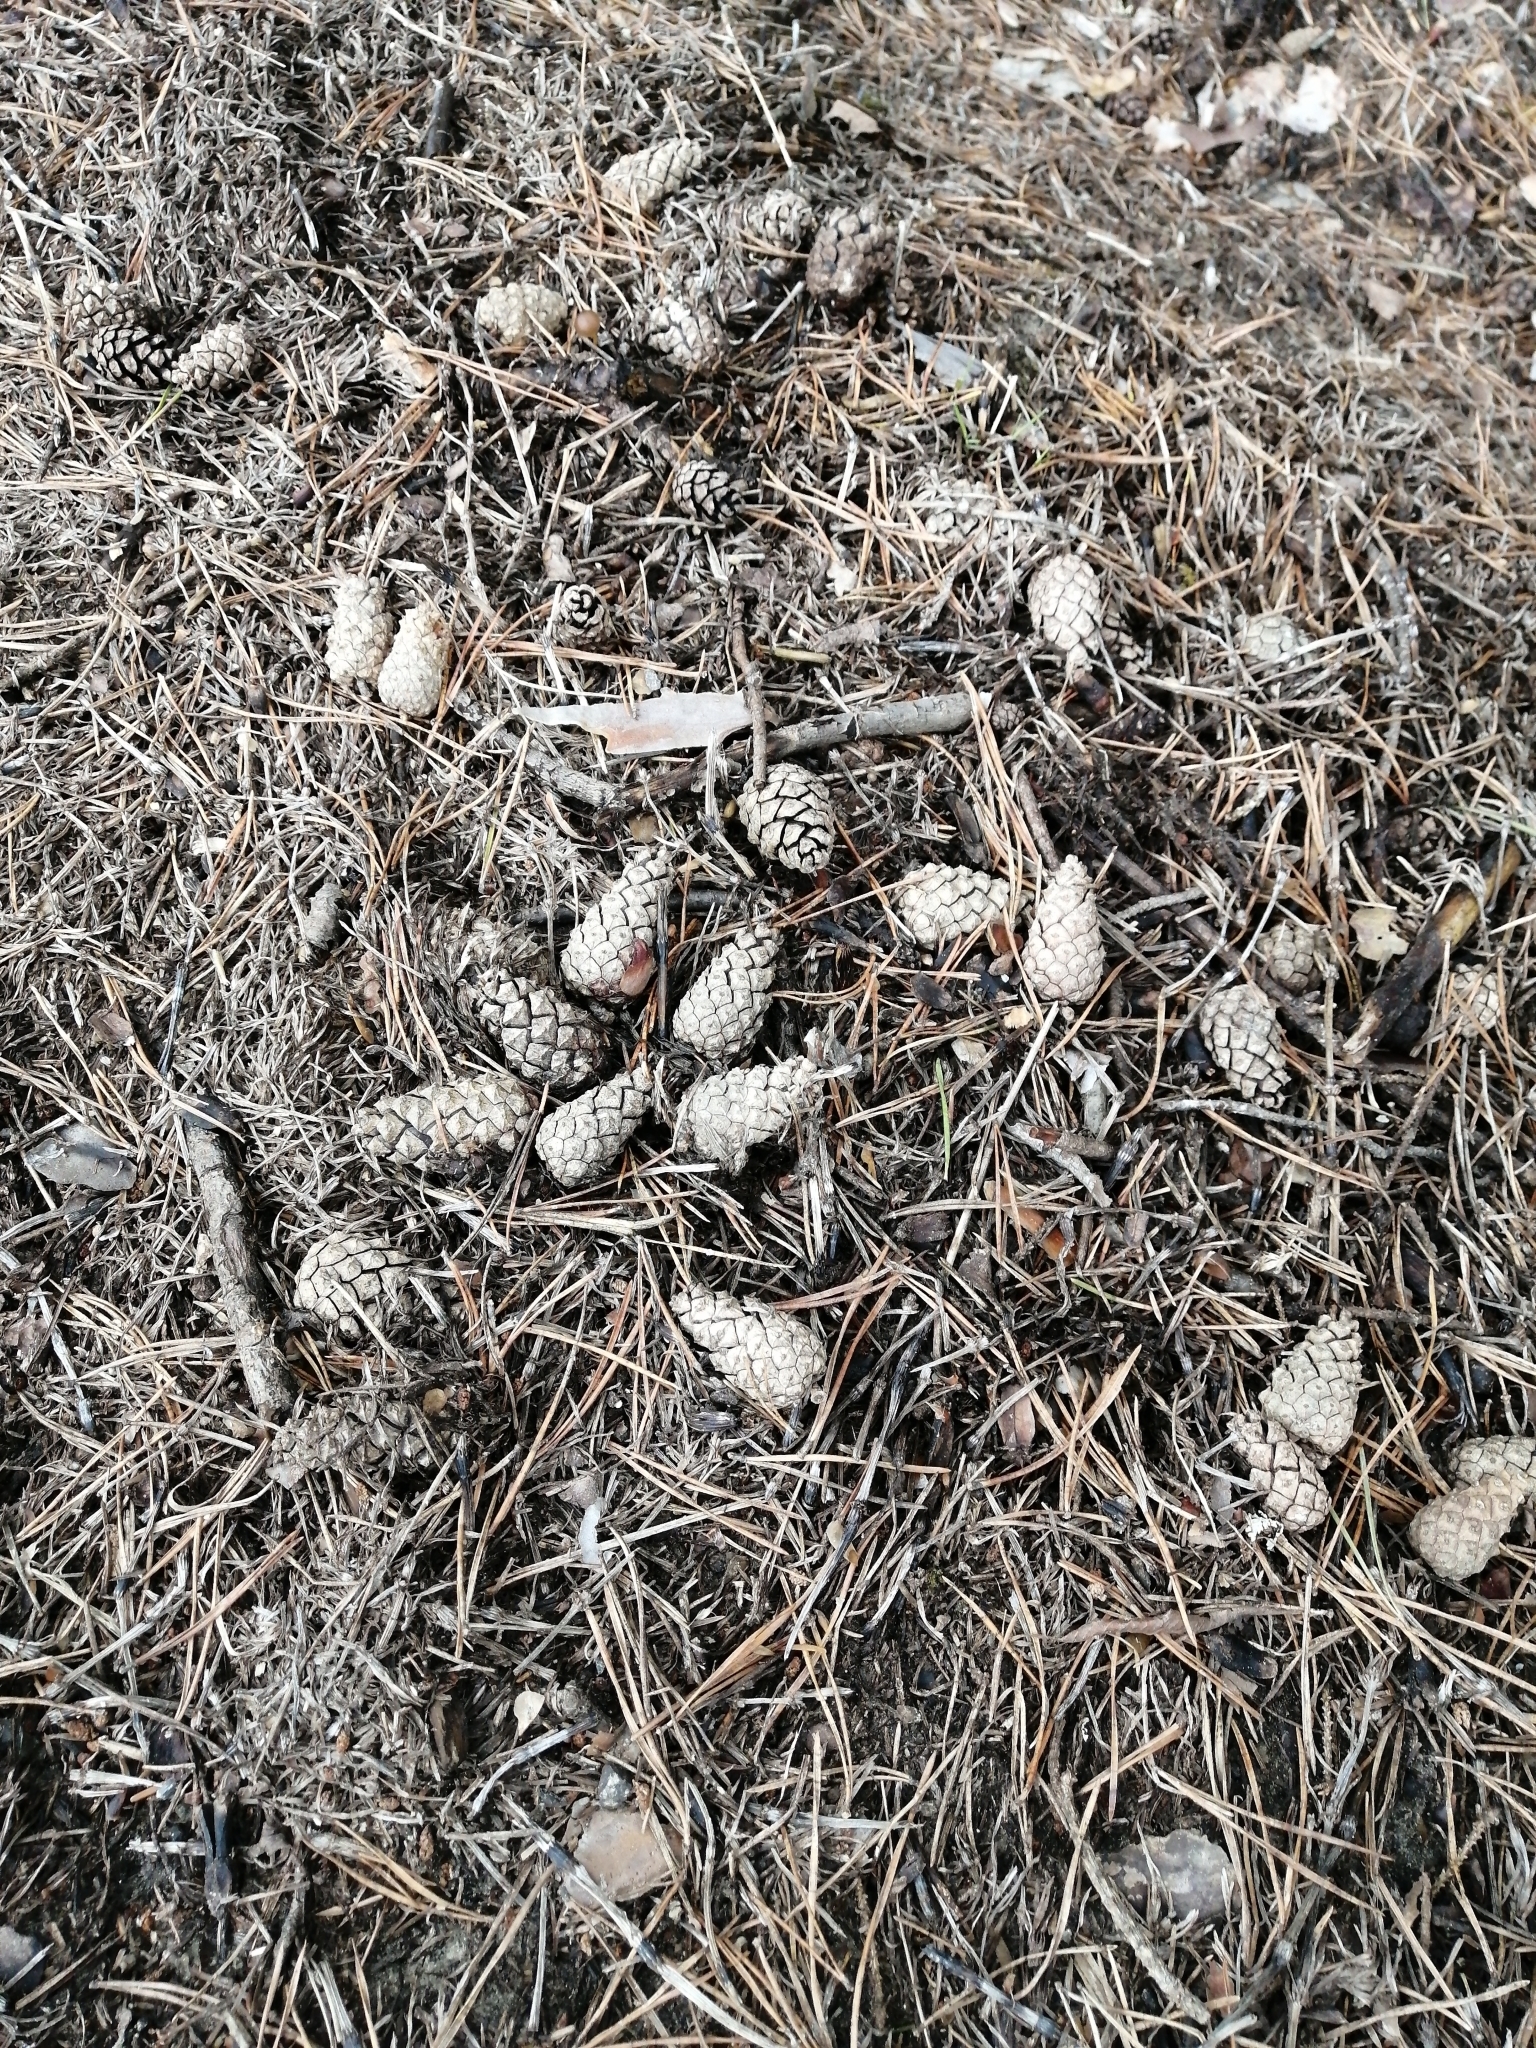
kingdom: Plantae
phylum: Tracheophyta
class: Pinopsida
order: Pinales
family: Pinaceae
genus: Pinus
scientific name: Pinus sylvestris
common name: Scots pine
